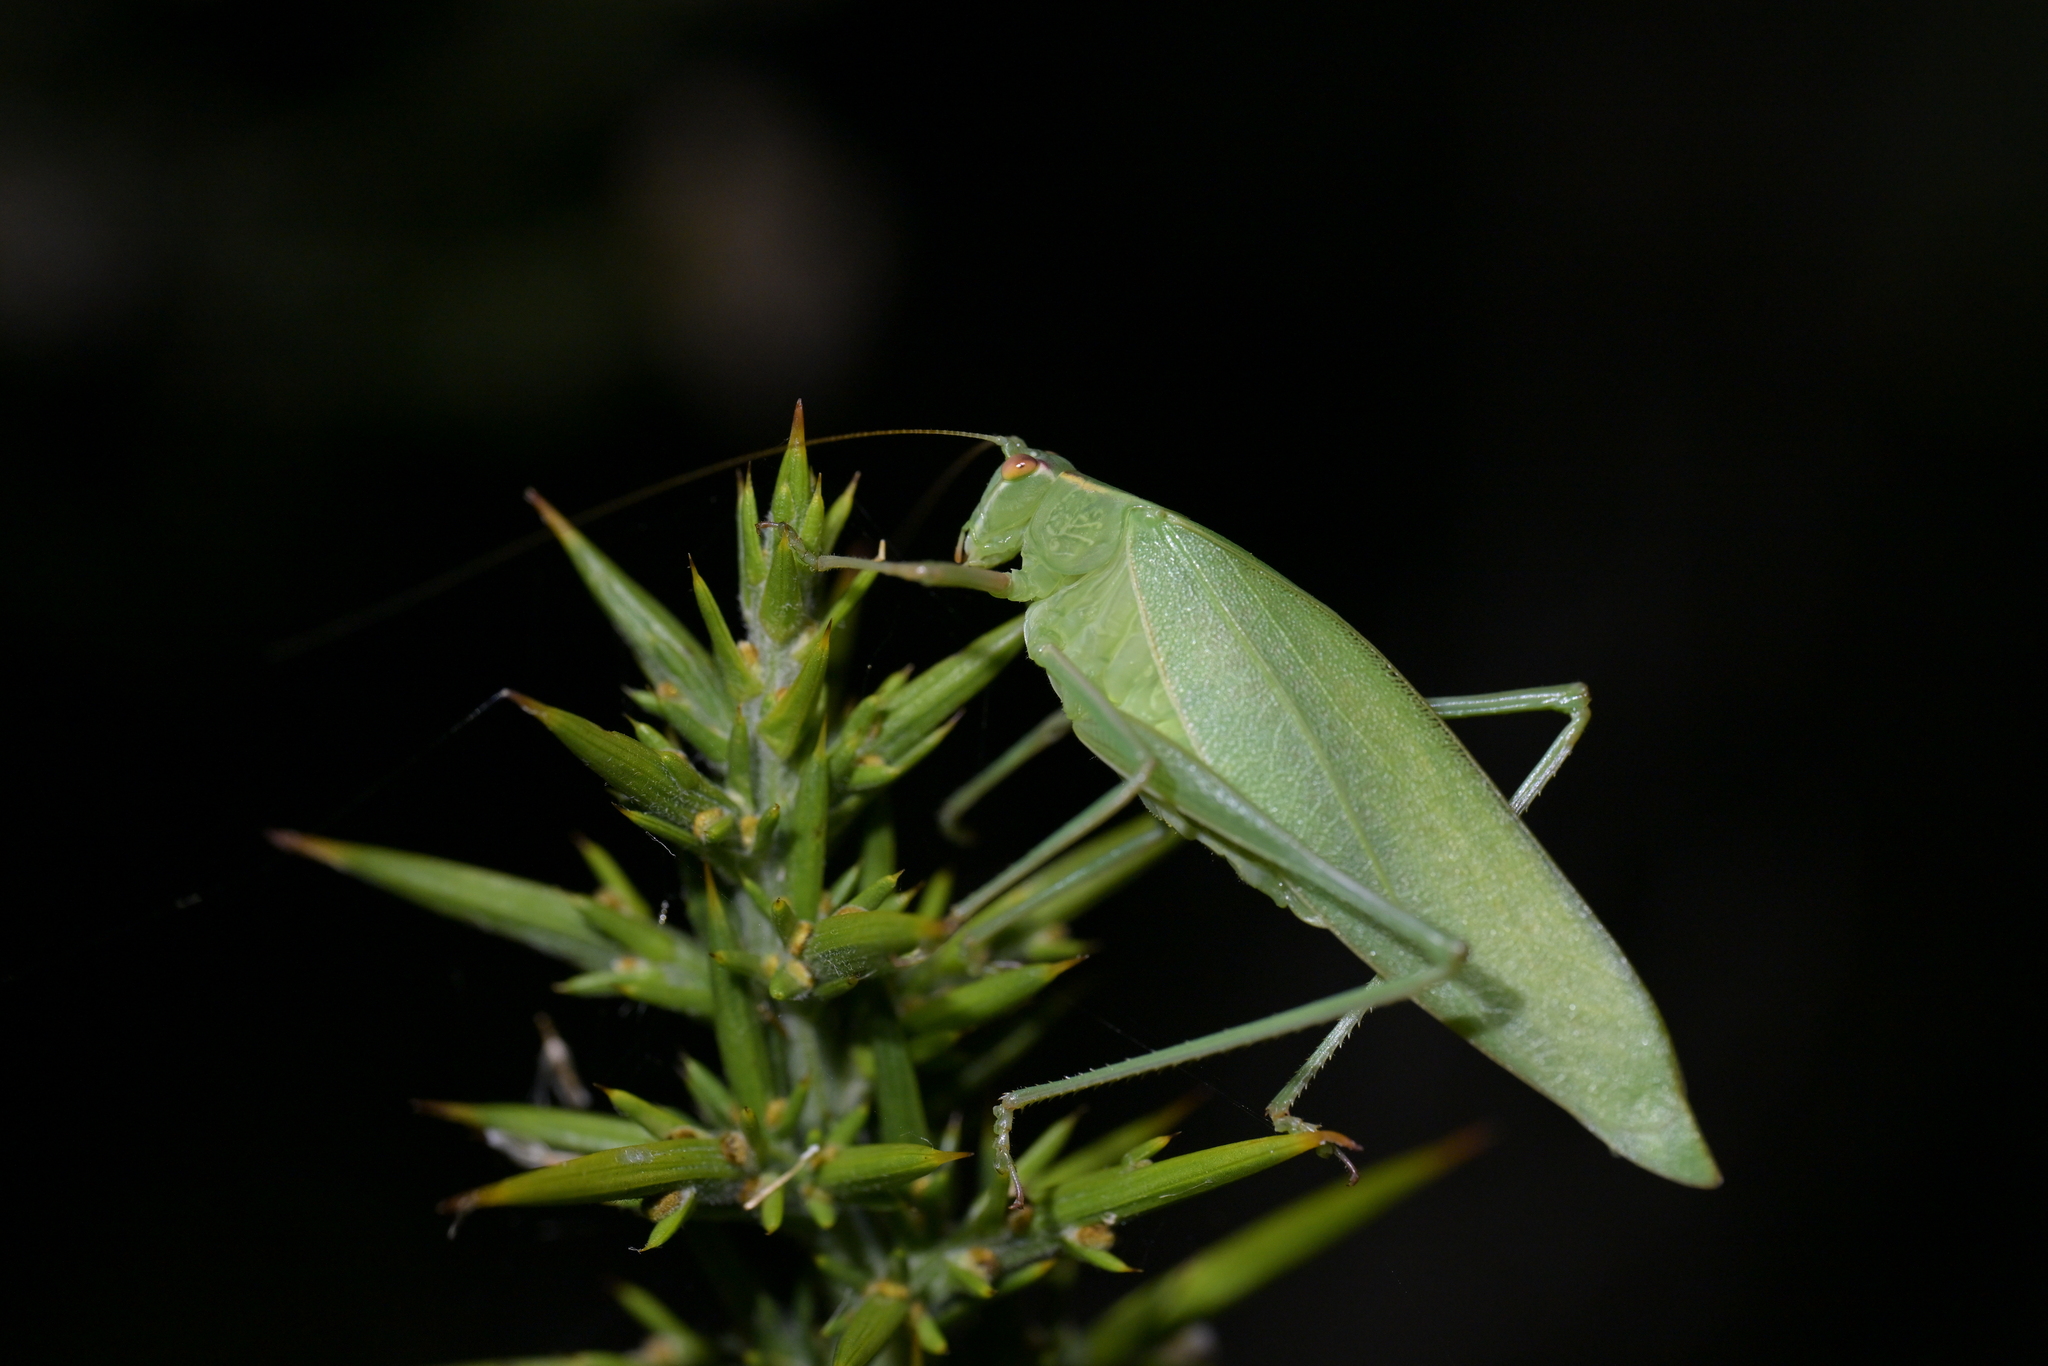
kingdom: Animalia
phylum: Arthropoda
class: Insecta
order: Orthoptera
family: Tettigoniidae
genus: Caedicia
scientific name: Caedicia simplex
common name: Common garden katydid
